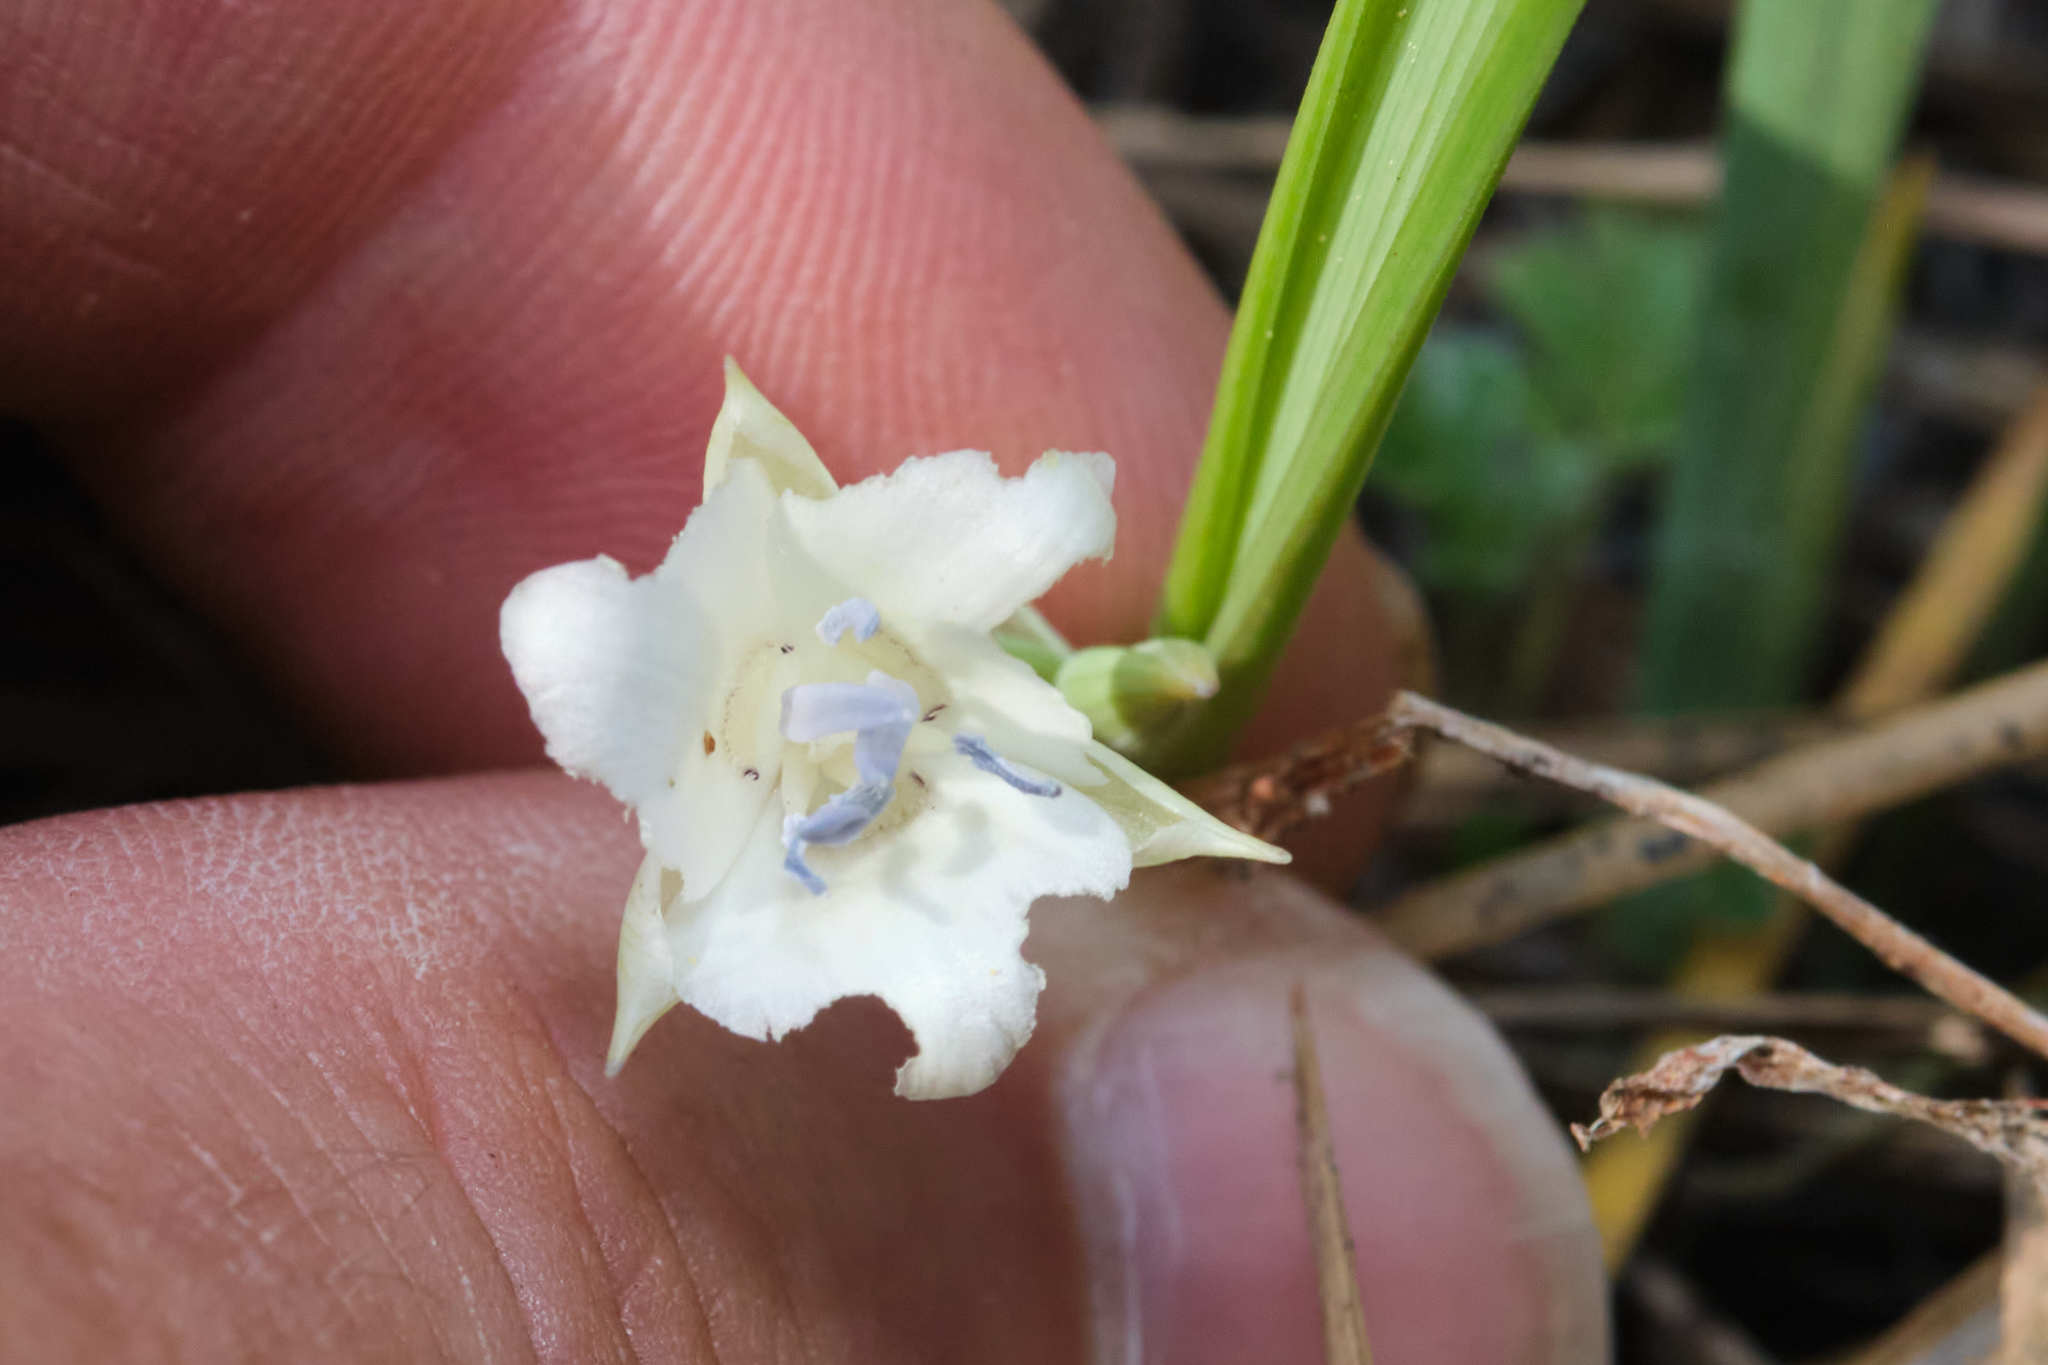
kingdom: Plantae
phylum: Tracheophyta
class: Liliopsida
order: Liliales
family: Liliaceae
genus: Calochortus
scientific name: Calochortus minimus
